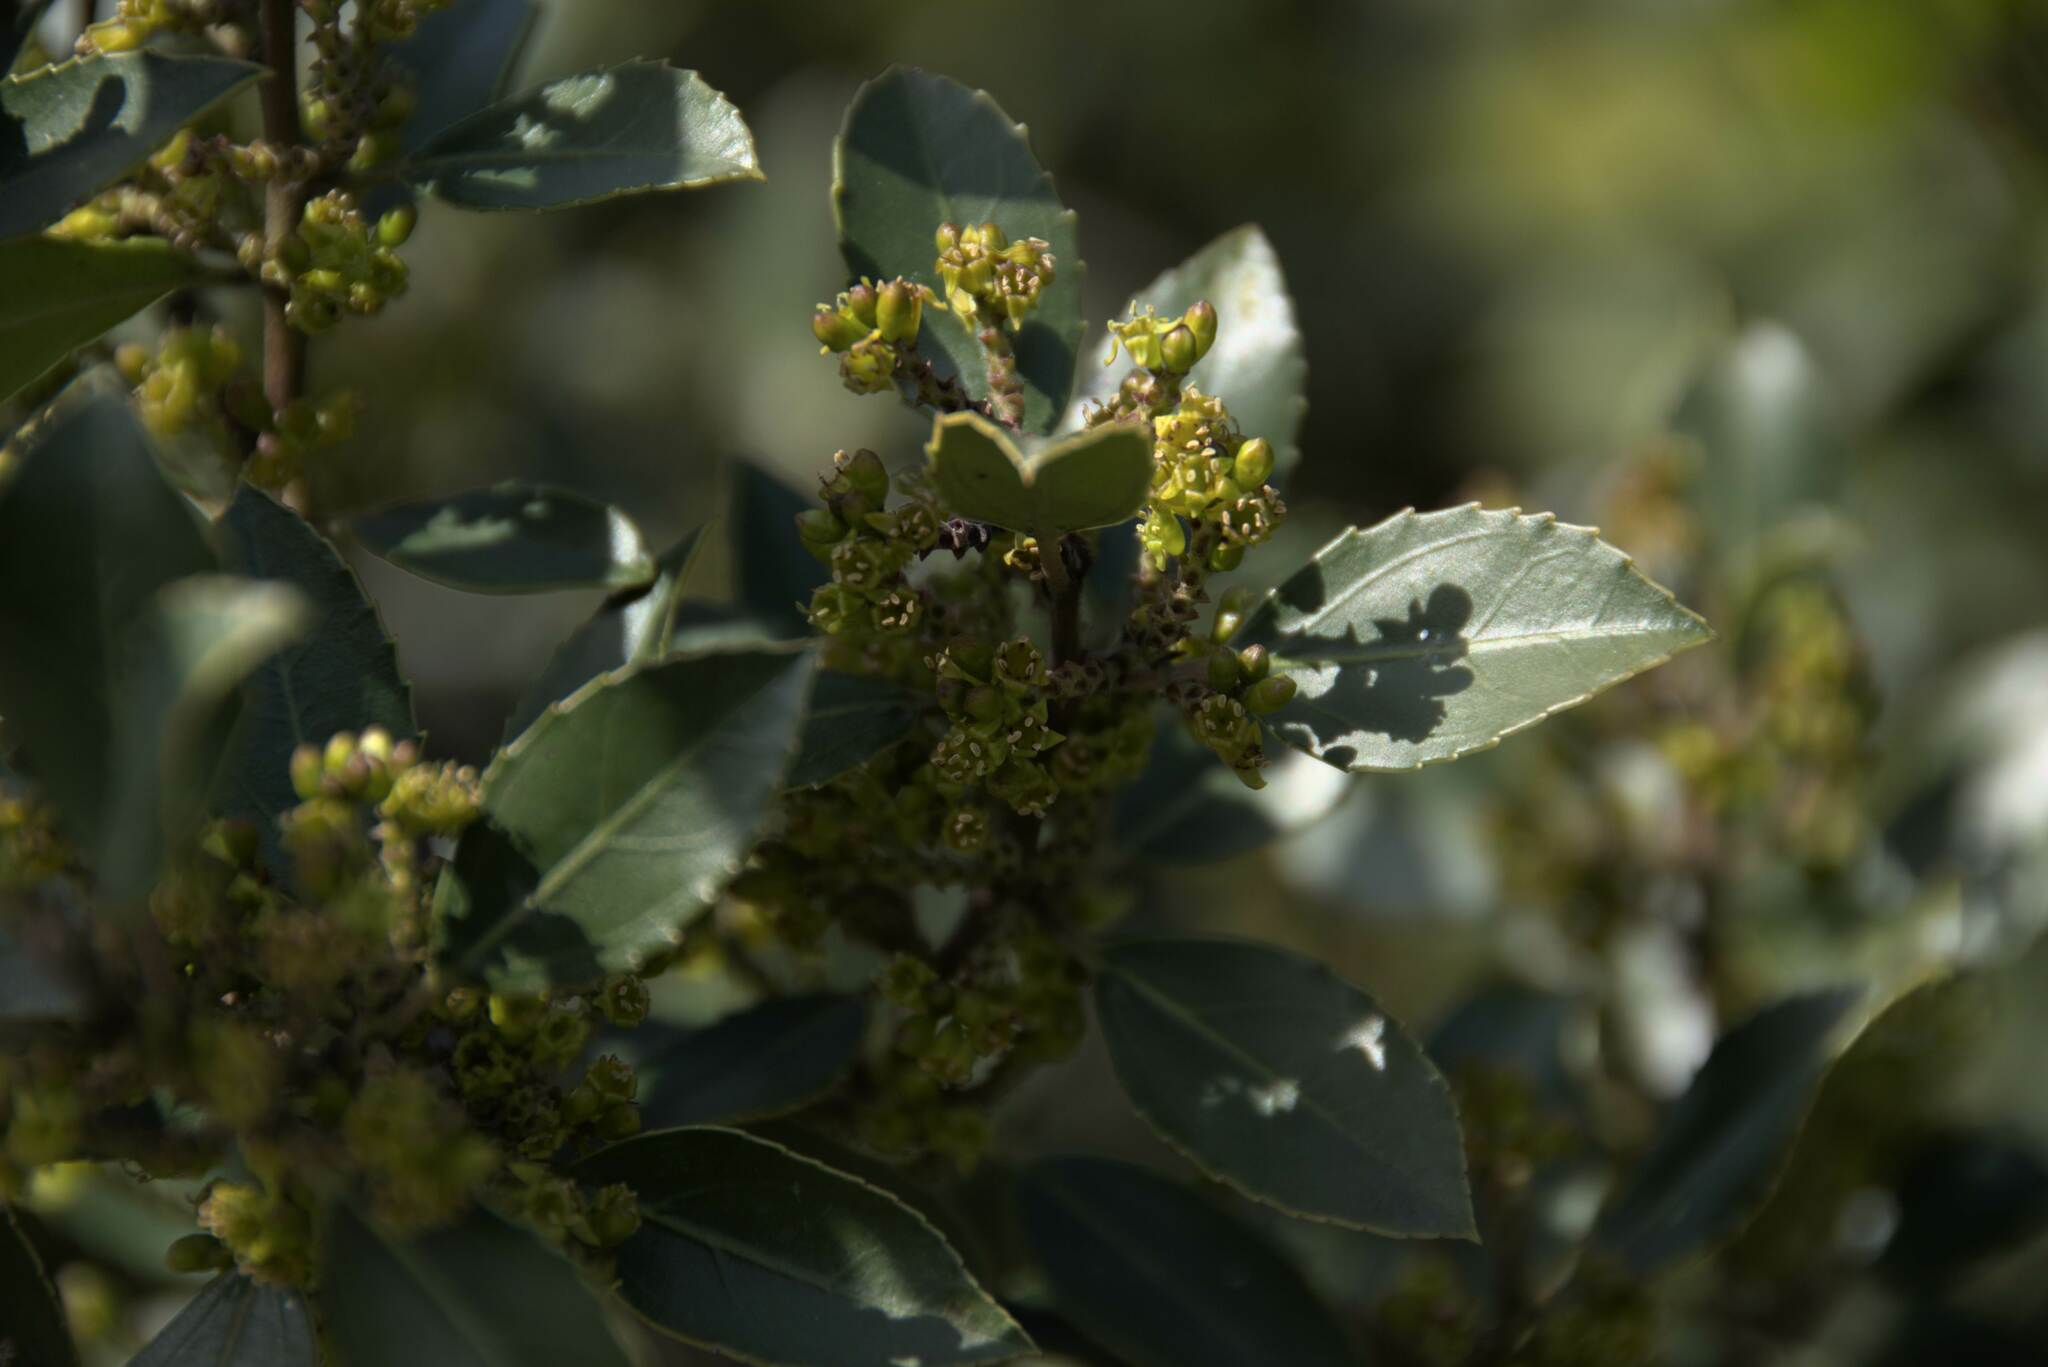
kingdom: Plantae
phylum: Tracheophyta
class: Magnoliopsida
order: Rosales
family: Rhamnaceae
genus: Rhamnus
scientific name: Rhamnus alaternus
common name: Mediterranean buckthorn
